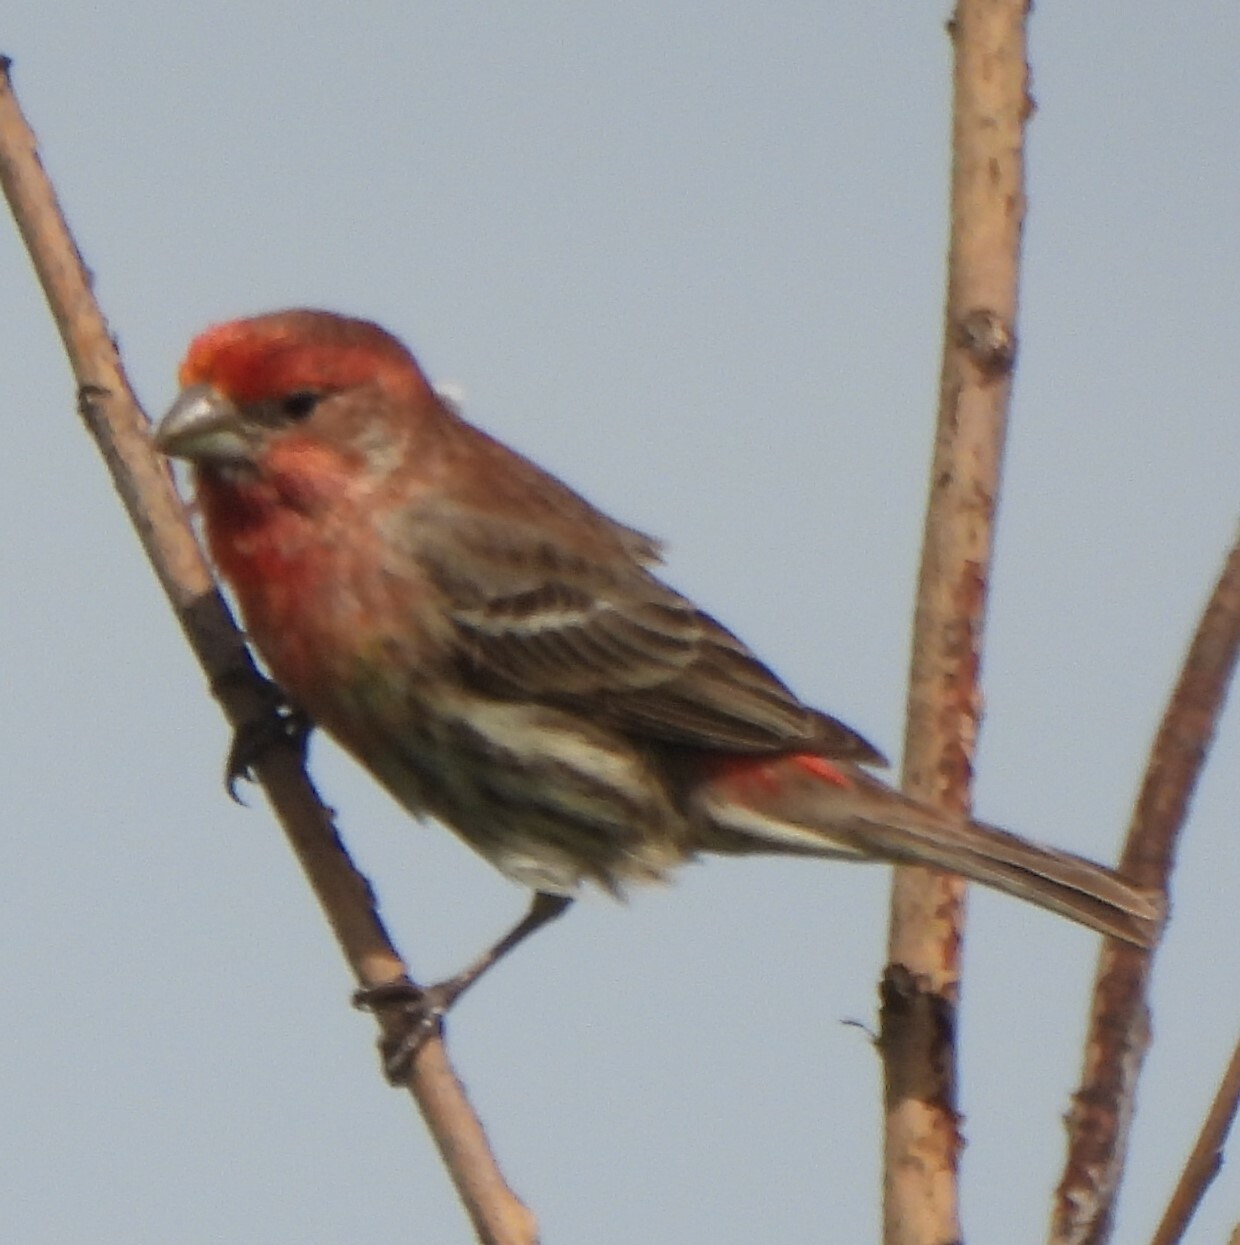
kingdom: Animalia
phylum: Chordata
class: Aves
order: Passeriformes
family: Fringillidae
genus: Haemorhous
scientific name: Haemorhous mexicanus
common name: House finch
